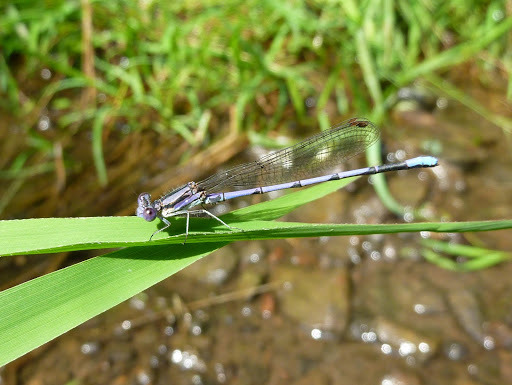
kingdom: Animalia
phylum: Arthropoda
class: Insecta
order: Odonata
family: Coenagrionidae
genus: Argia
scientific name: Argia fumipennis
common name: Variable dancer
